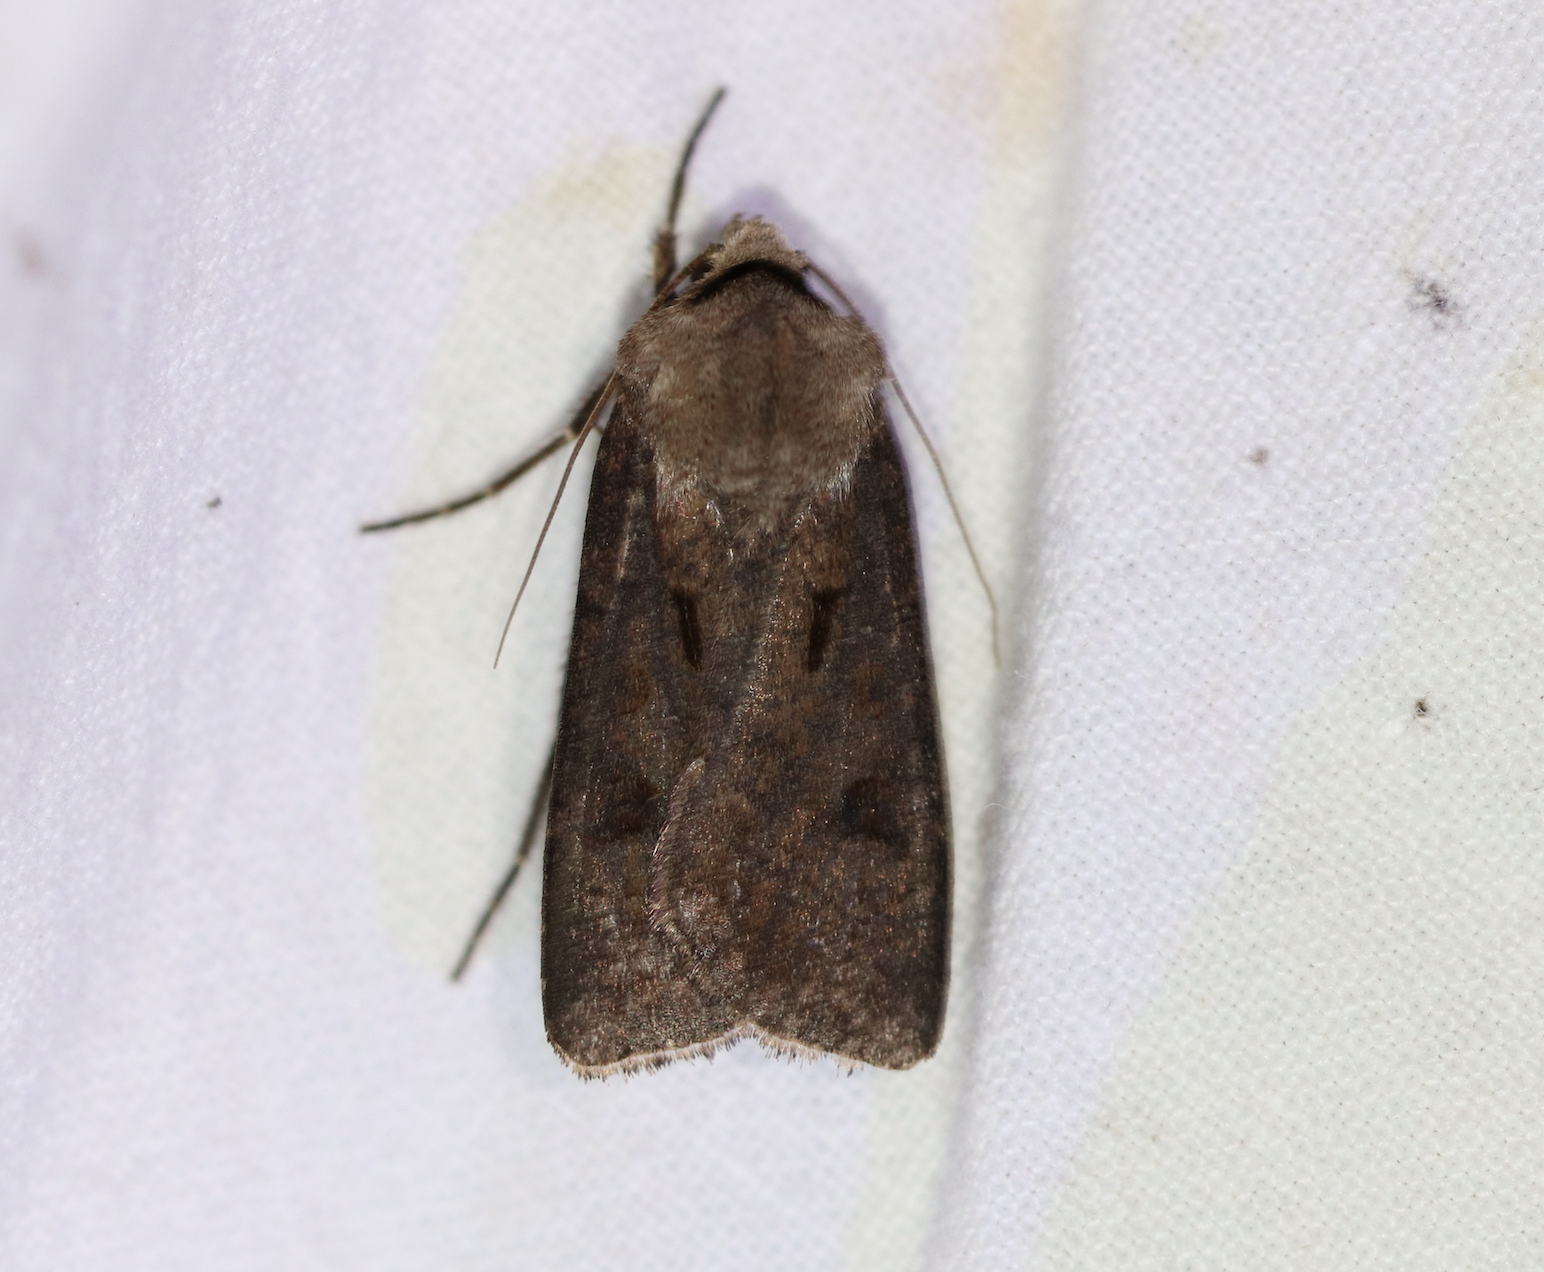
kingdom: Animalia
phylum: Arthropoda
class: Insecta
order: Lepidoptera
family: Noctuidae
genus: Agrotis
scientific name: Agrotis exclamationis
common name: Heart and dart
